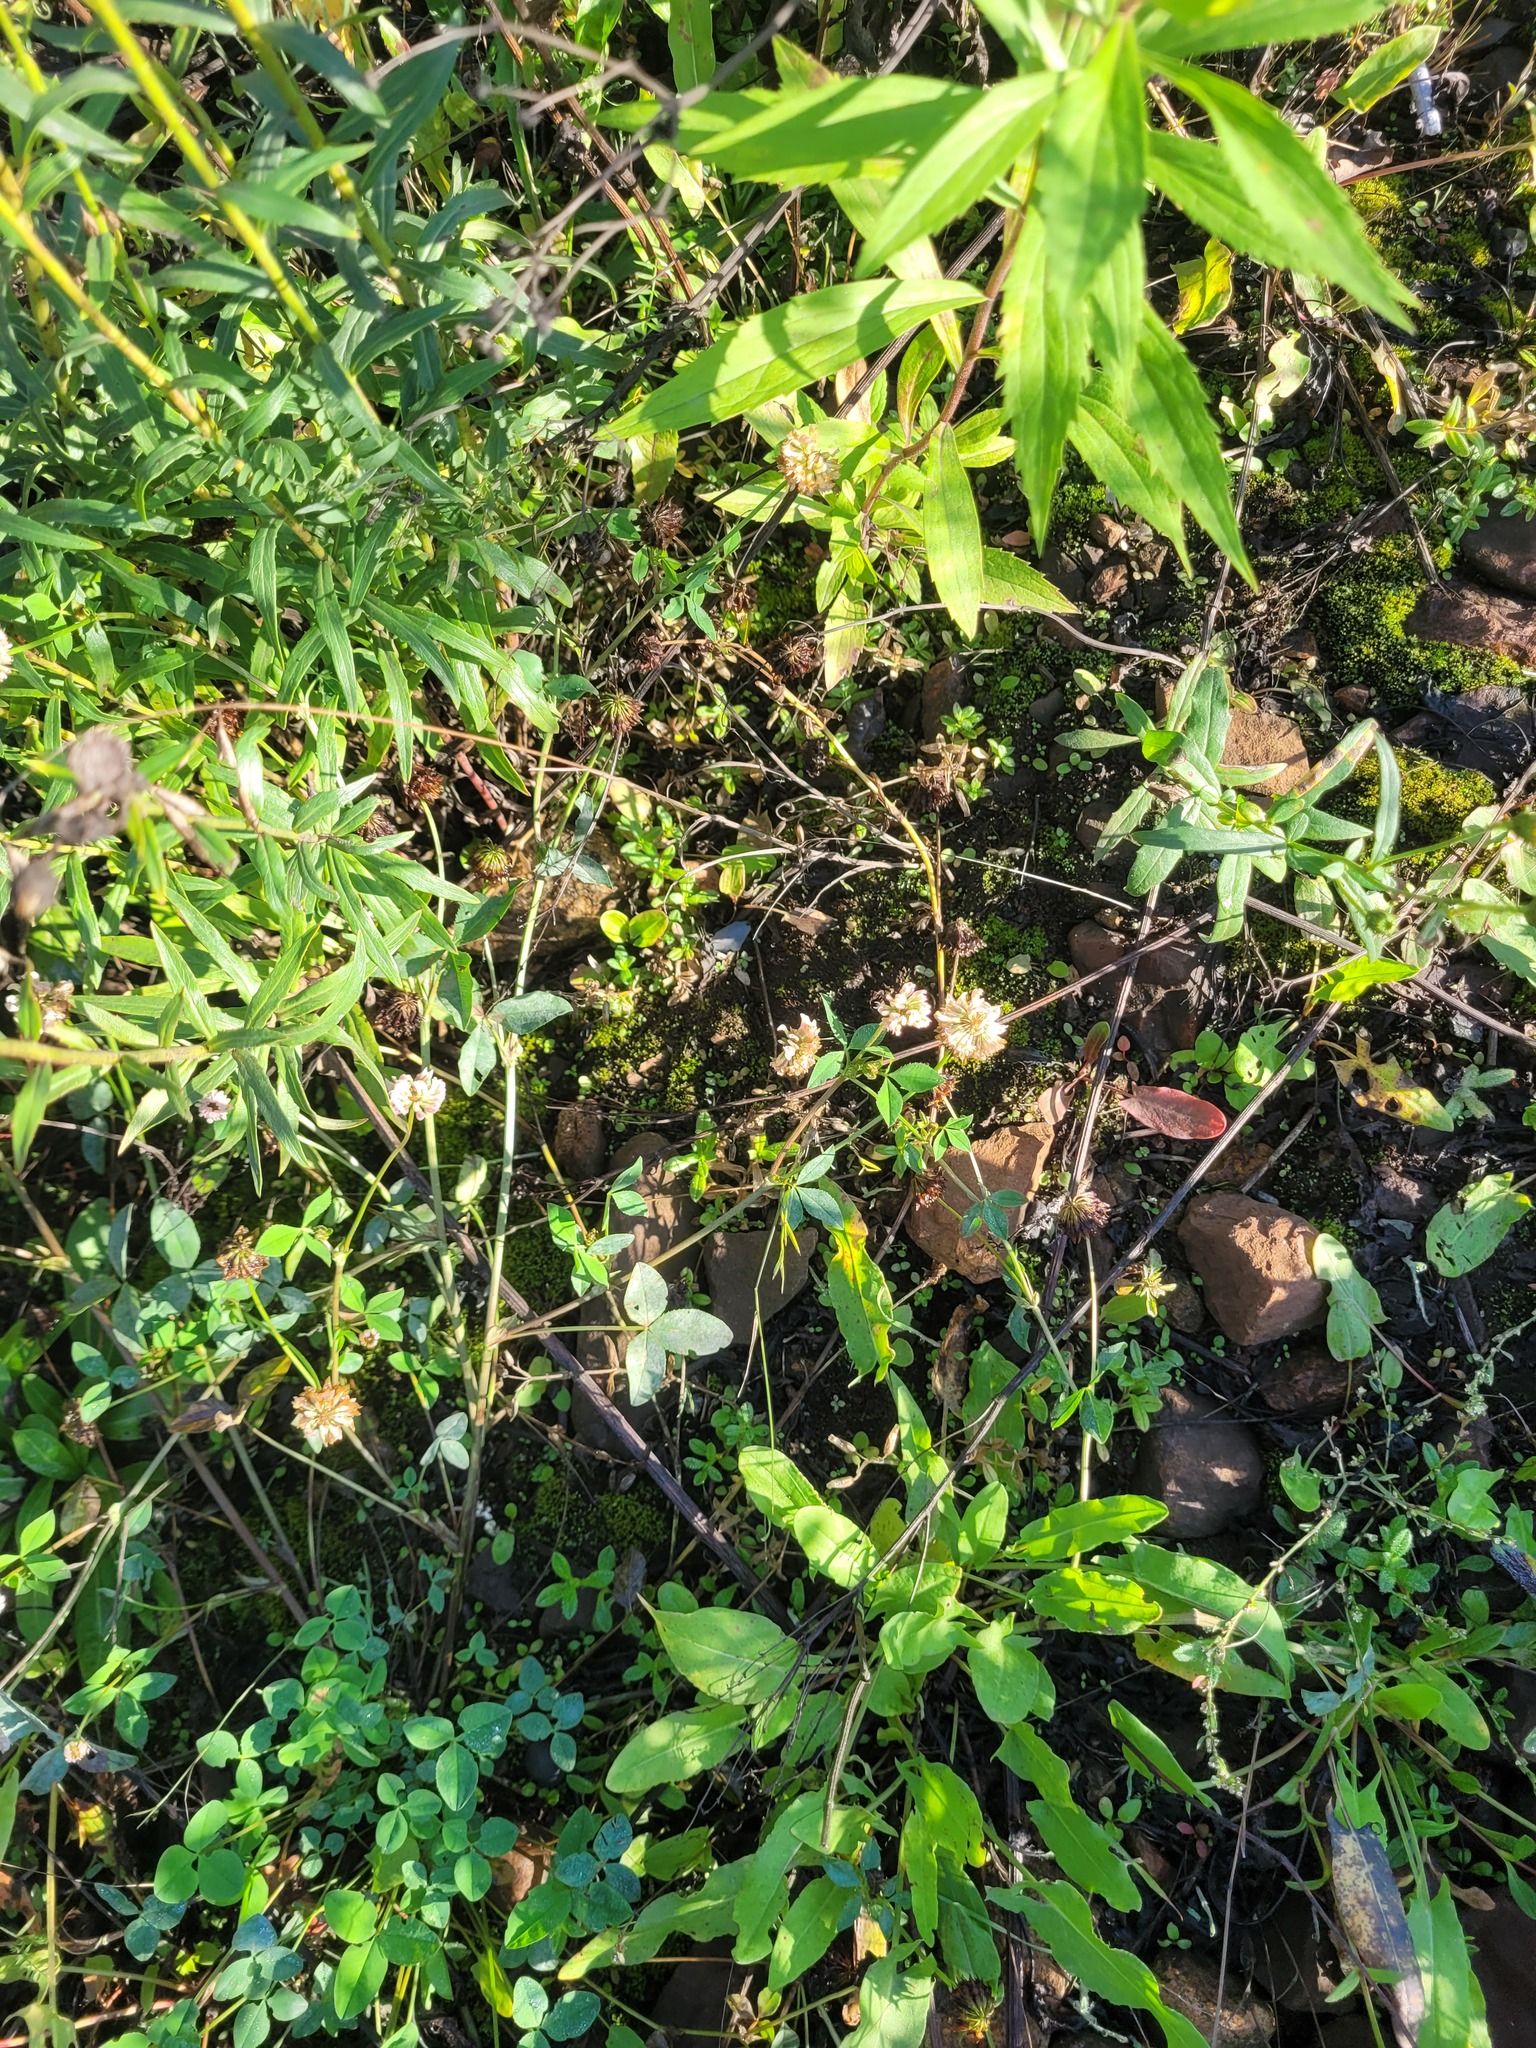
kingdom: Plantae
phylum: Tracheophyta
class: Magnoliopsida
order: Fabales
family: Fabaceae
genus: Trifolium
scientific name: Trifolium hybridum
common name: Alsike clover
